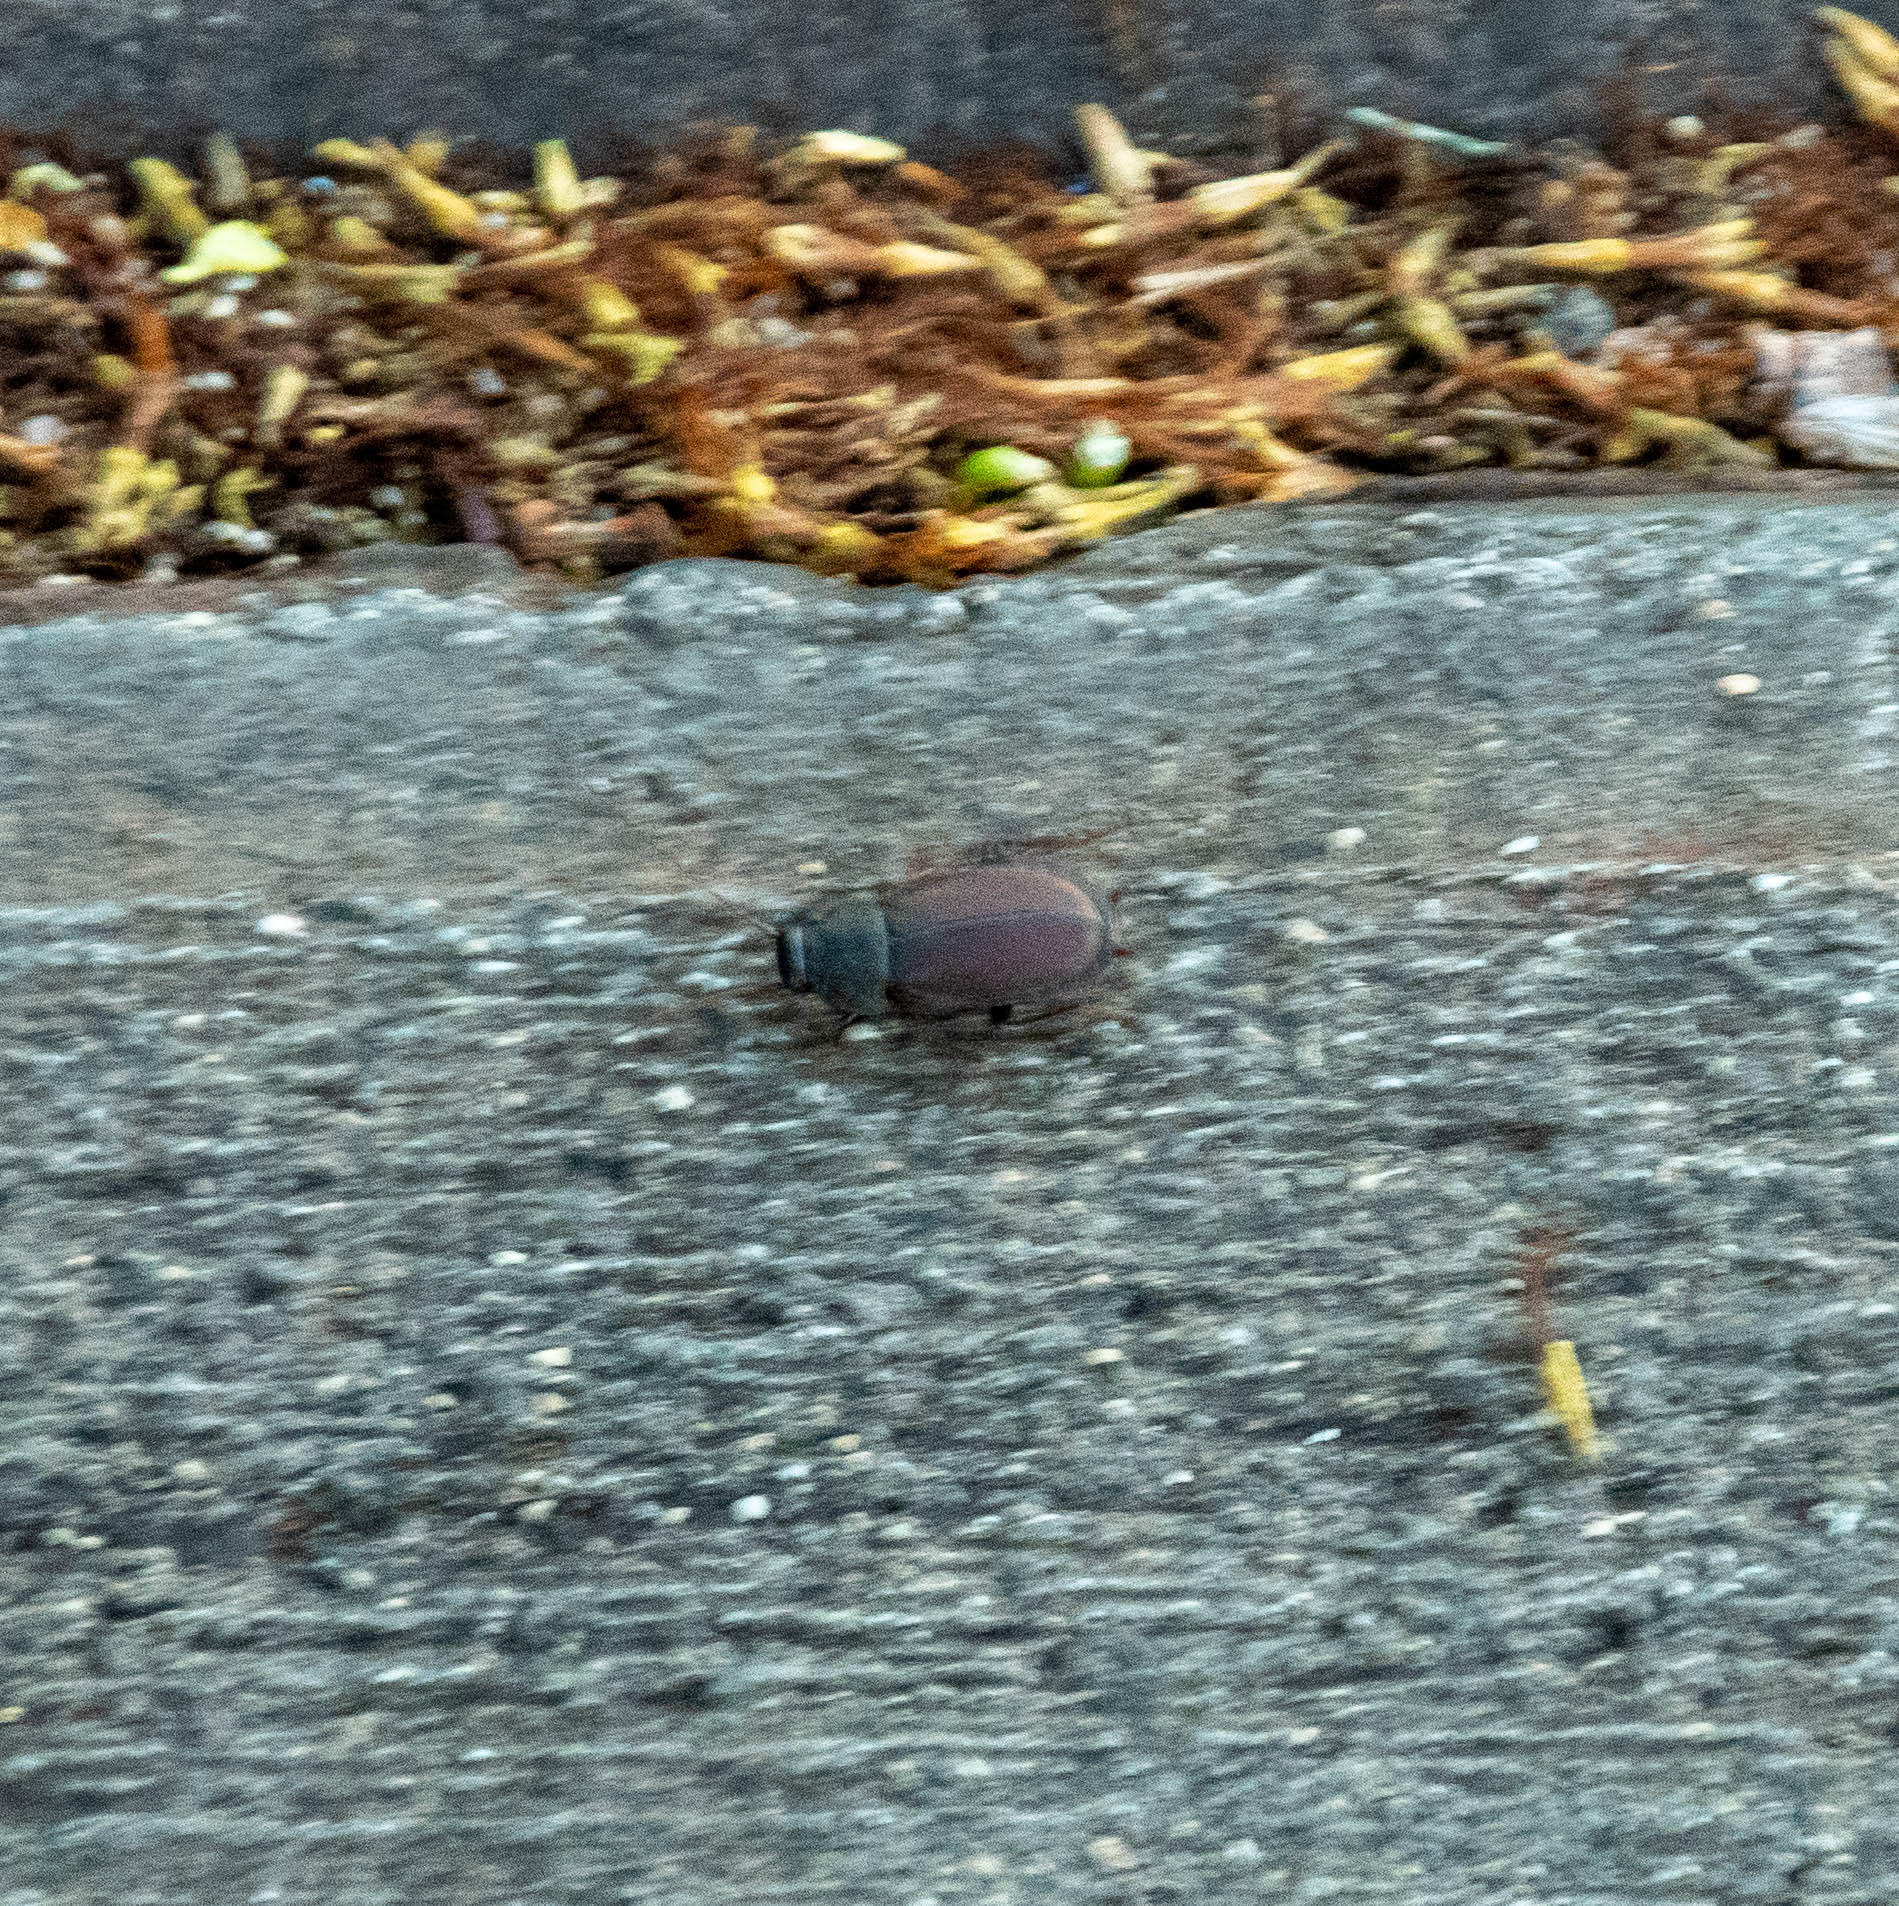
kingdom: Animalia
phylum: Arthropoda
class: Insecta
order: Blattodea
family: Blaberidae
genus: Diploptera
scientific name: Diploptera punctata
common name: Pacific beetle cockroach
